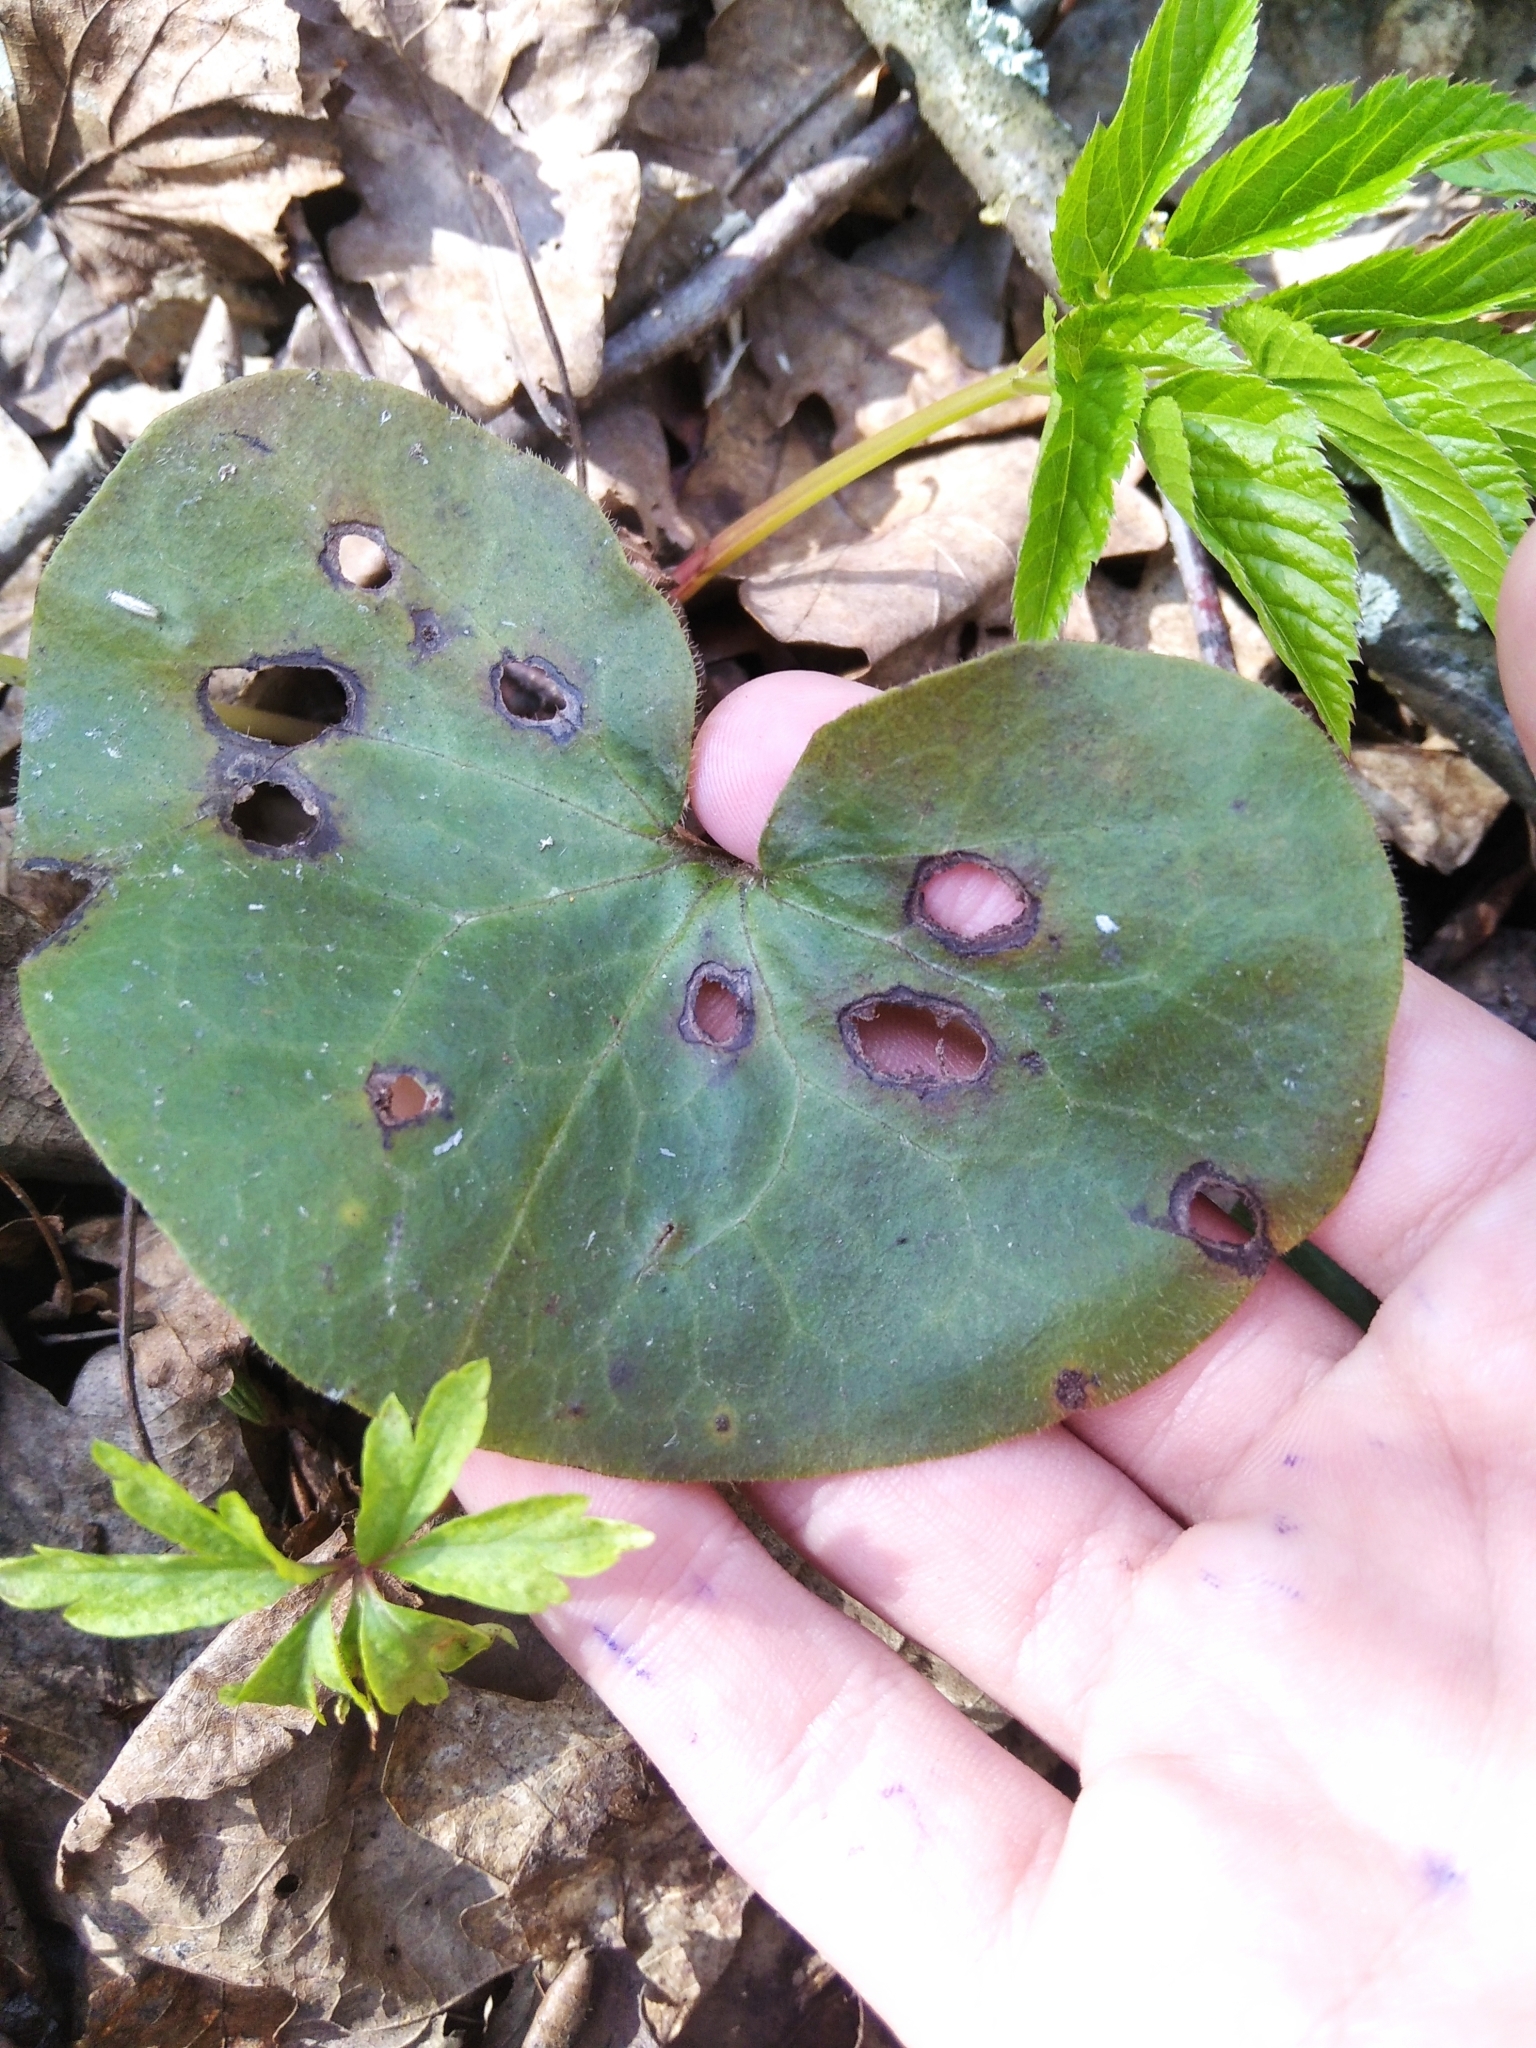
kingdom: Plantae
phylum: Tracheophyta
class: Magnoliopsida
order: Piperales
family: Aristolochiaceae
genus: Asarum
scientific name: Asarum europaeum
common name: Asarabacca
